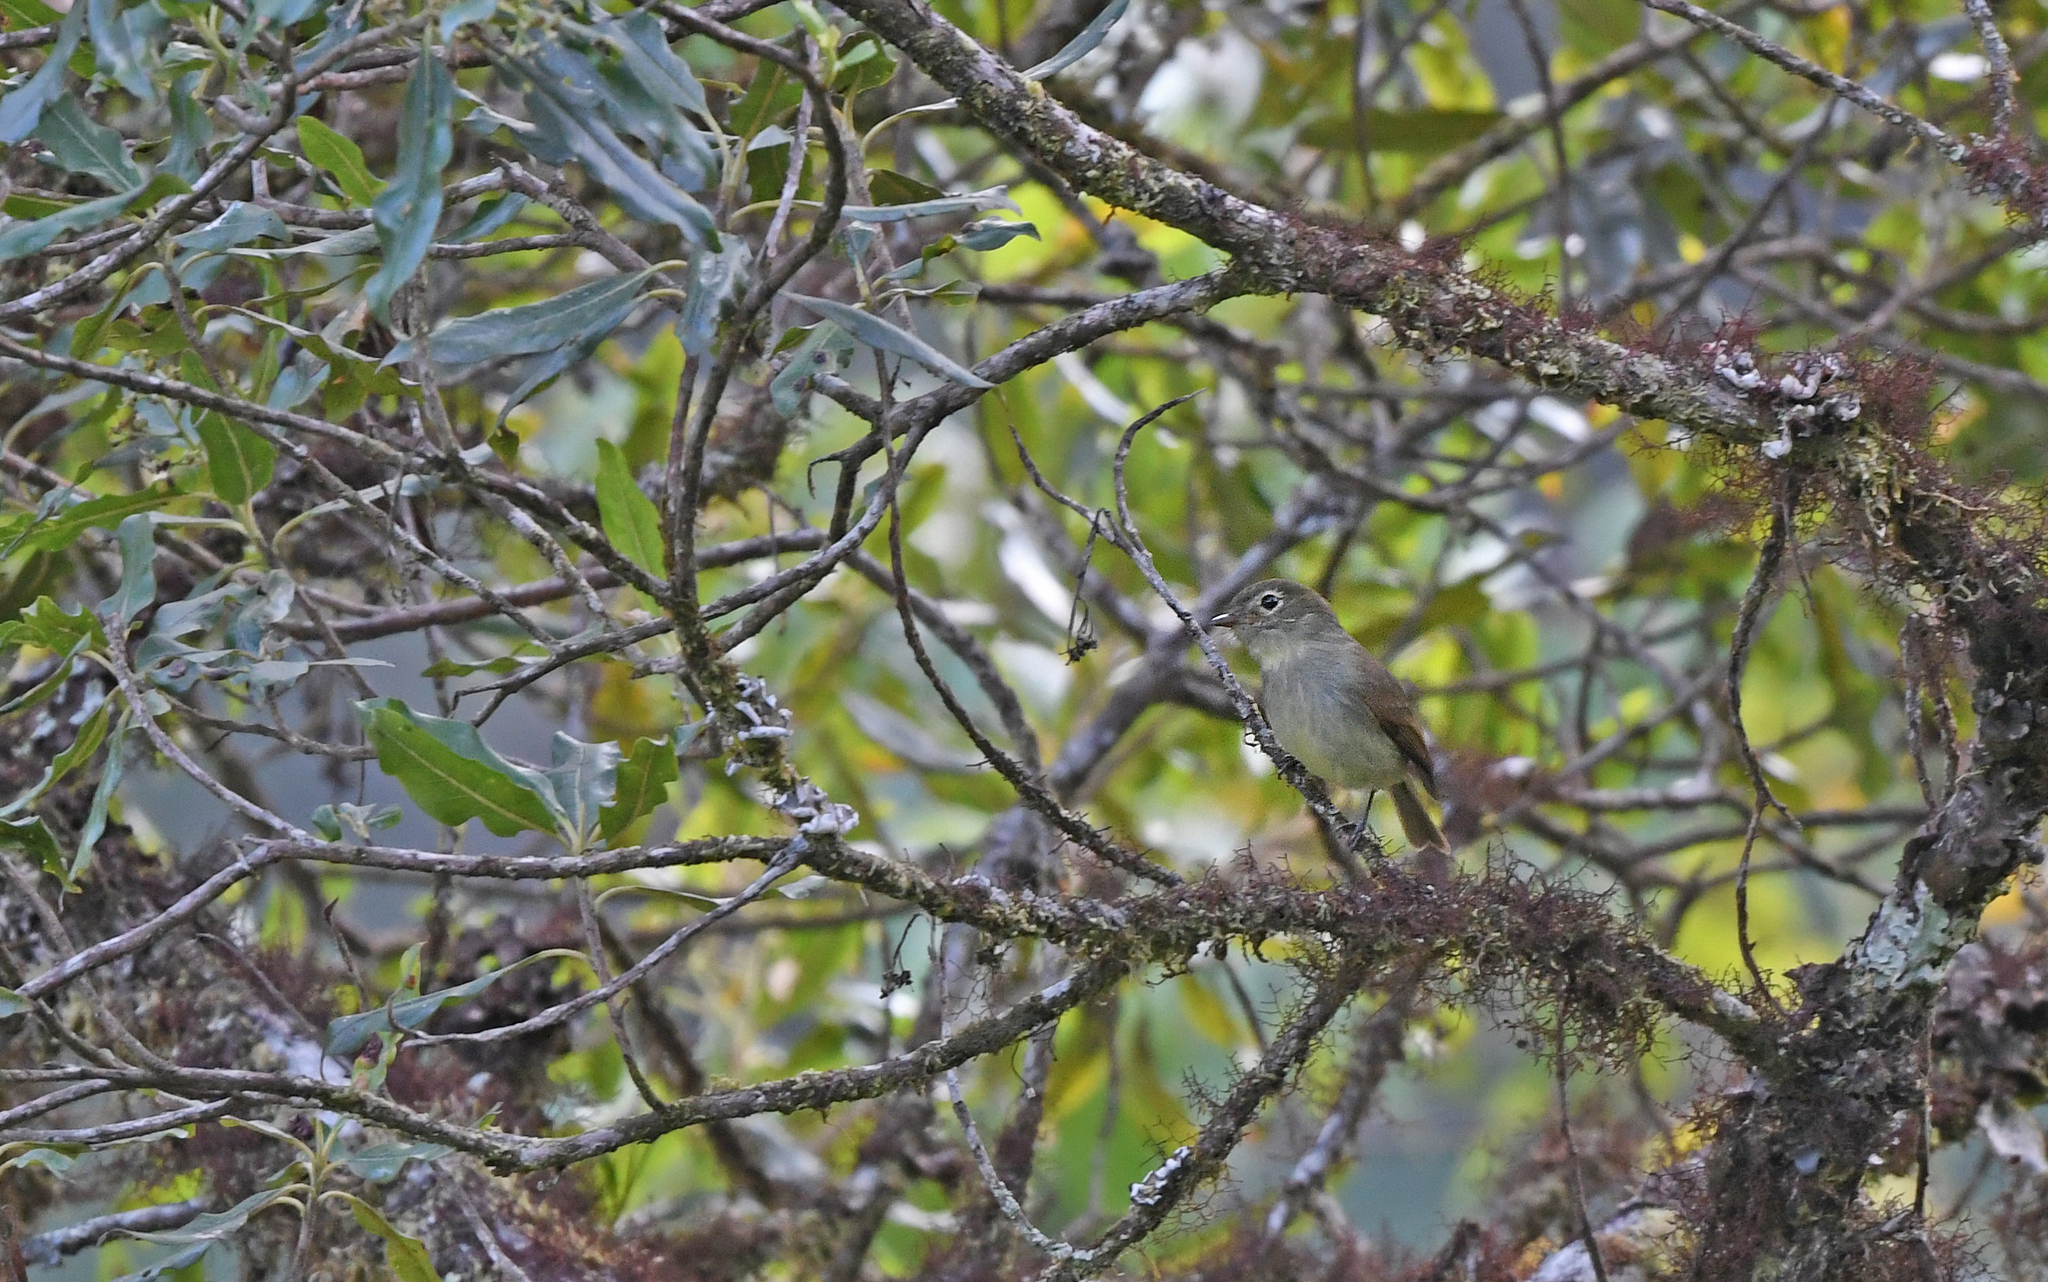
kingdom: Animalia
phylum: Chordata
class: Aves
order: Passeriformes
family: Tyrannidae
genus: Myiophobus
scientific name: Myiophobus inornatus
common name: Unadorned flycatcher
